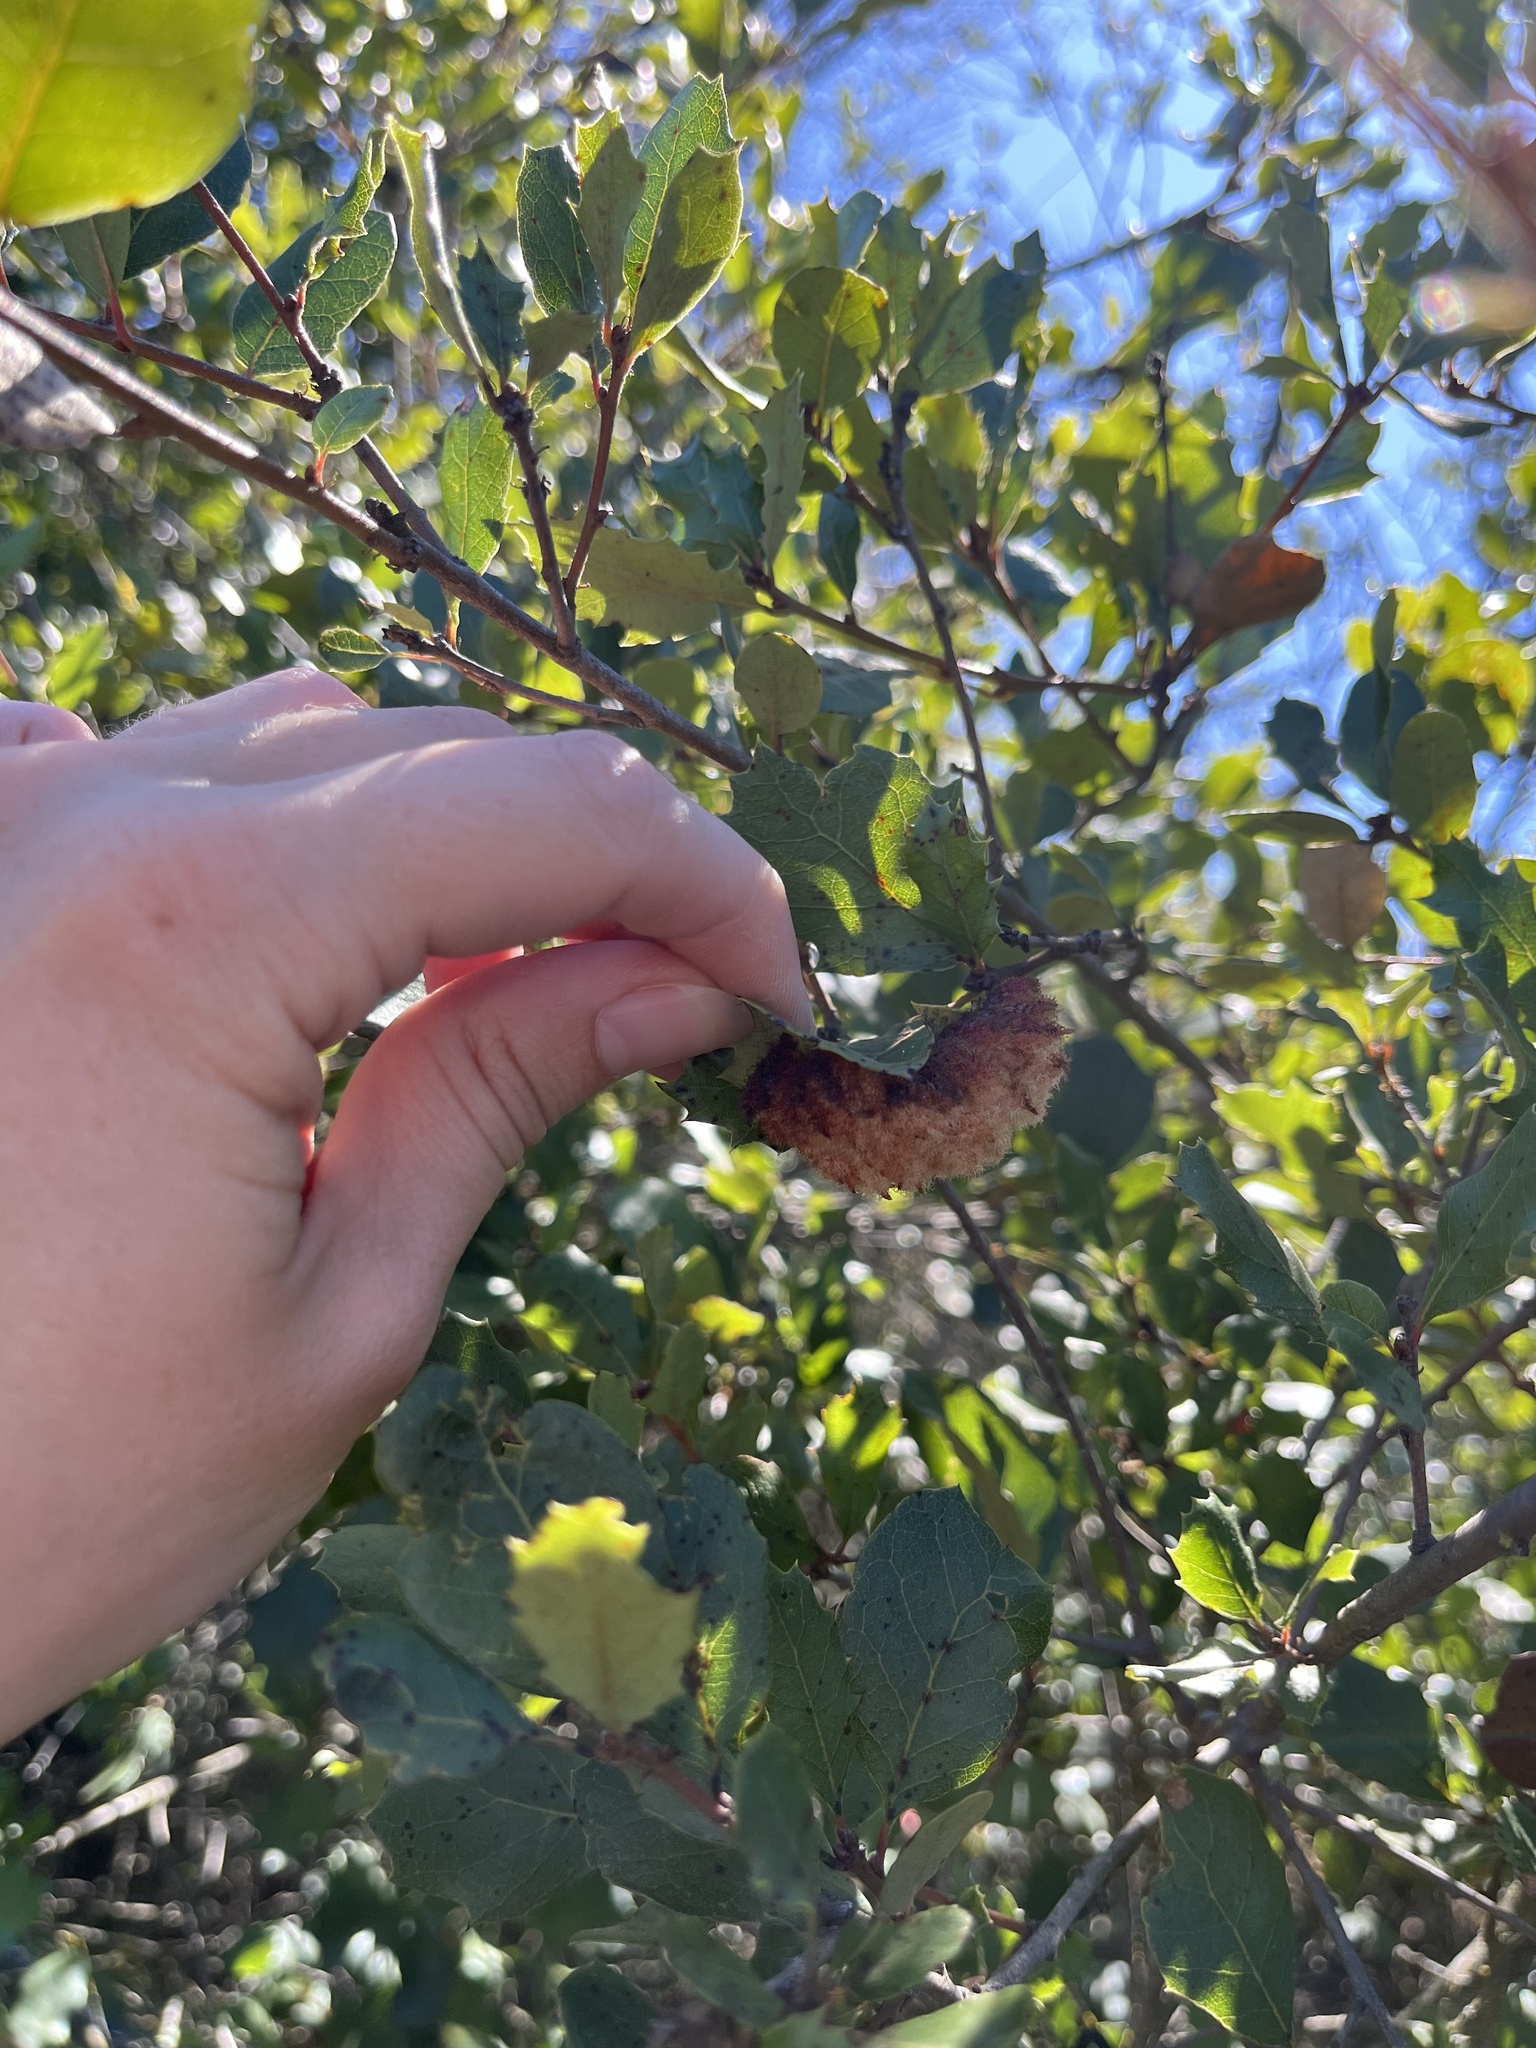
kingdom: Animalia
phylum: Arthropoda
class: Insecta
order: Hymenoptera
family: Cynipidae
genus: Andricus
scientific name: Andricus
